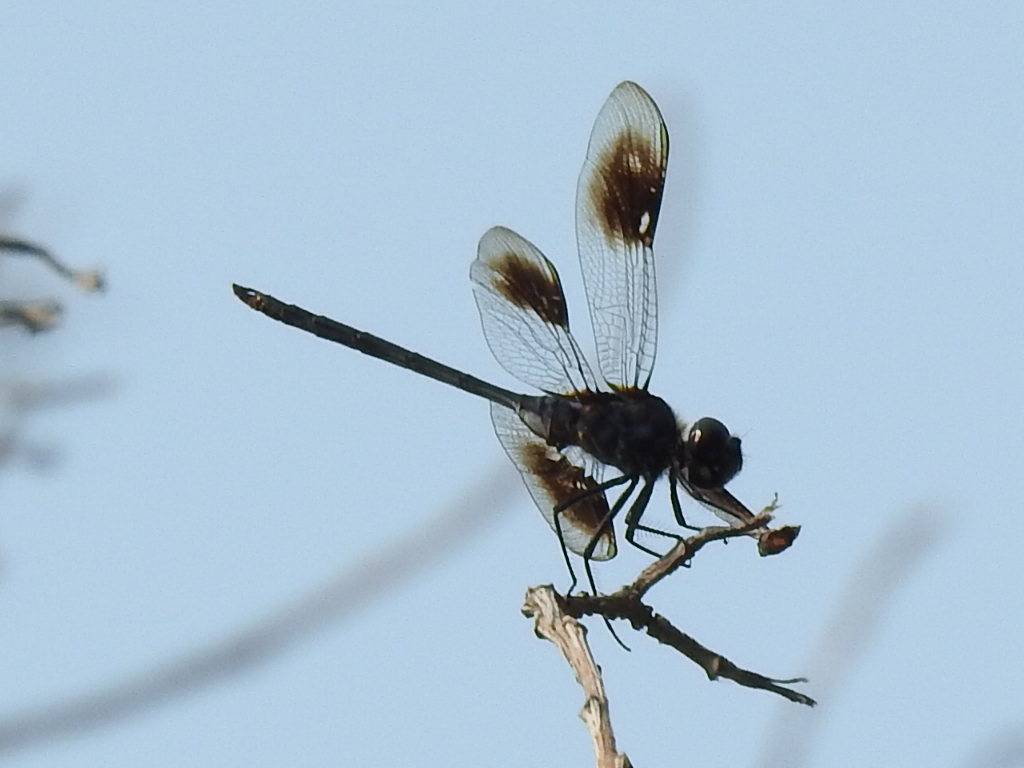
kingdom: Animalia
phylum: Arthropoda
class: Insecta
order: Odonata
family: Libellulidae
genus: Brachymesia
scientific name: Brachymesia gravida
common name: Four-spotted pennant
